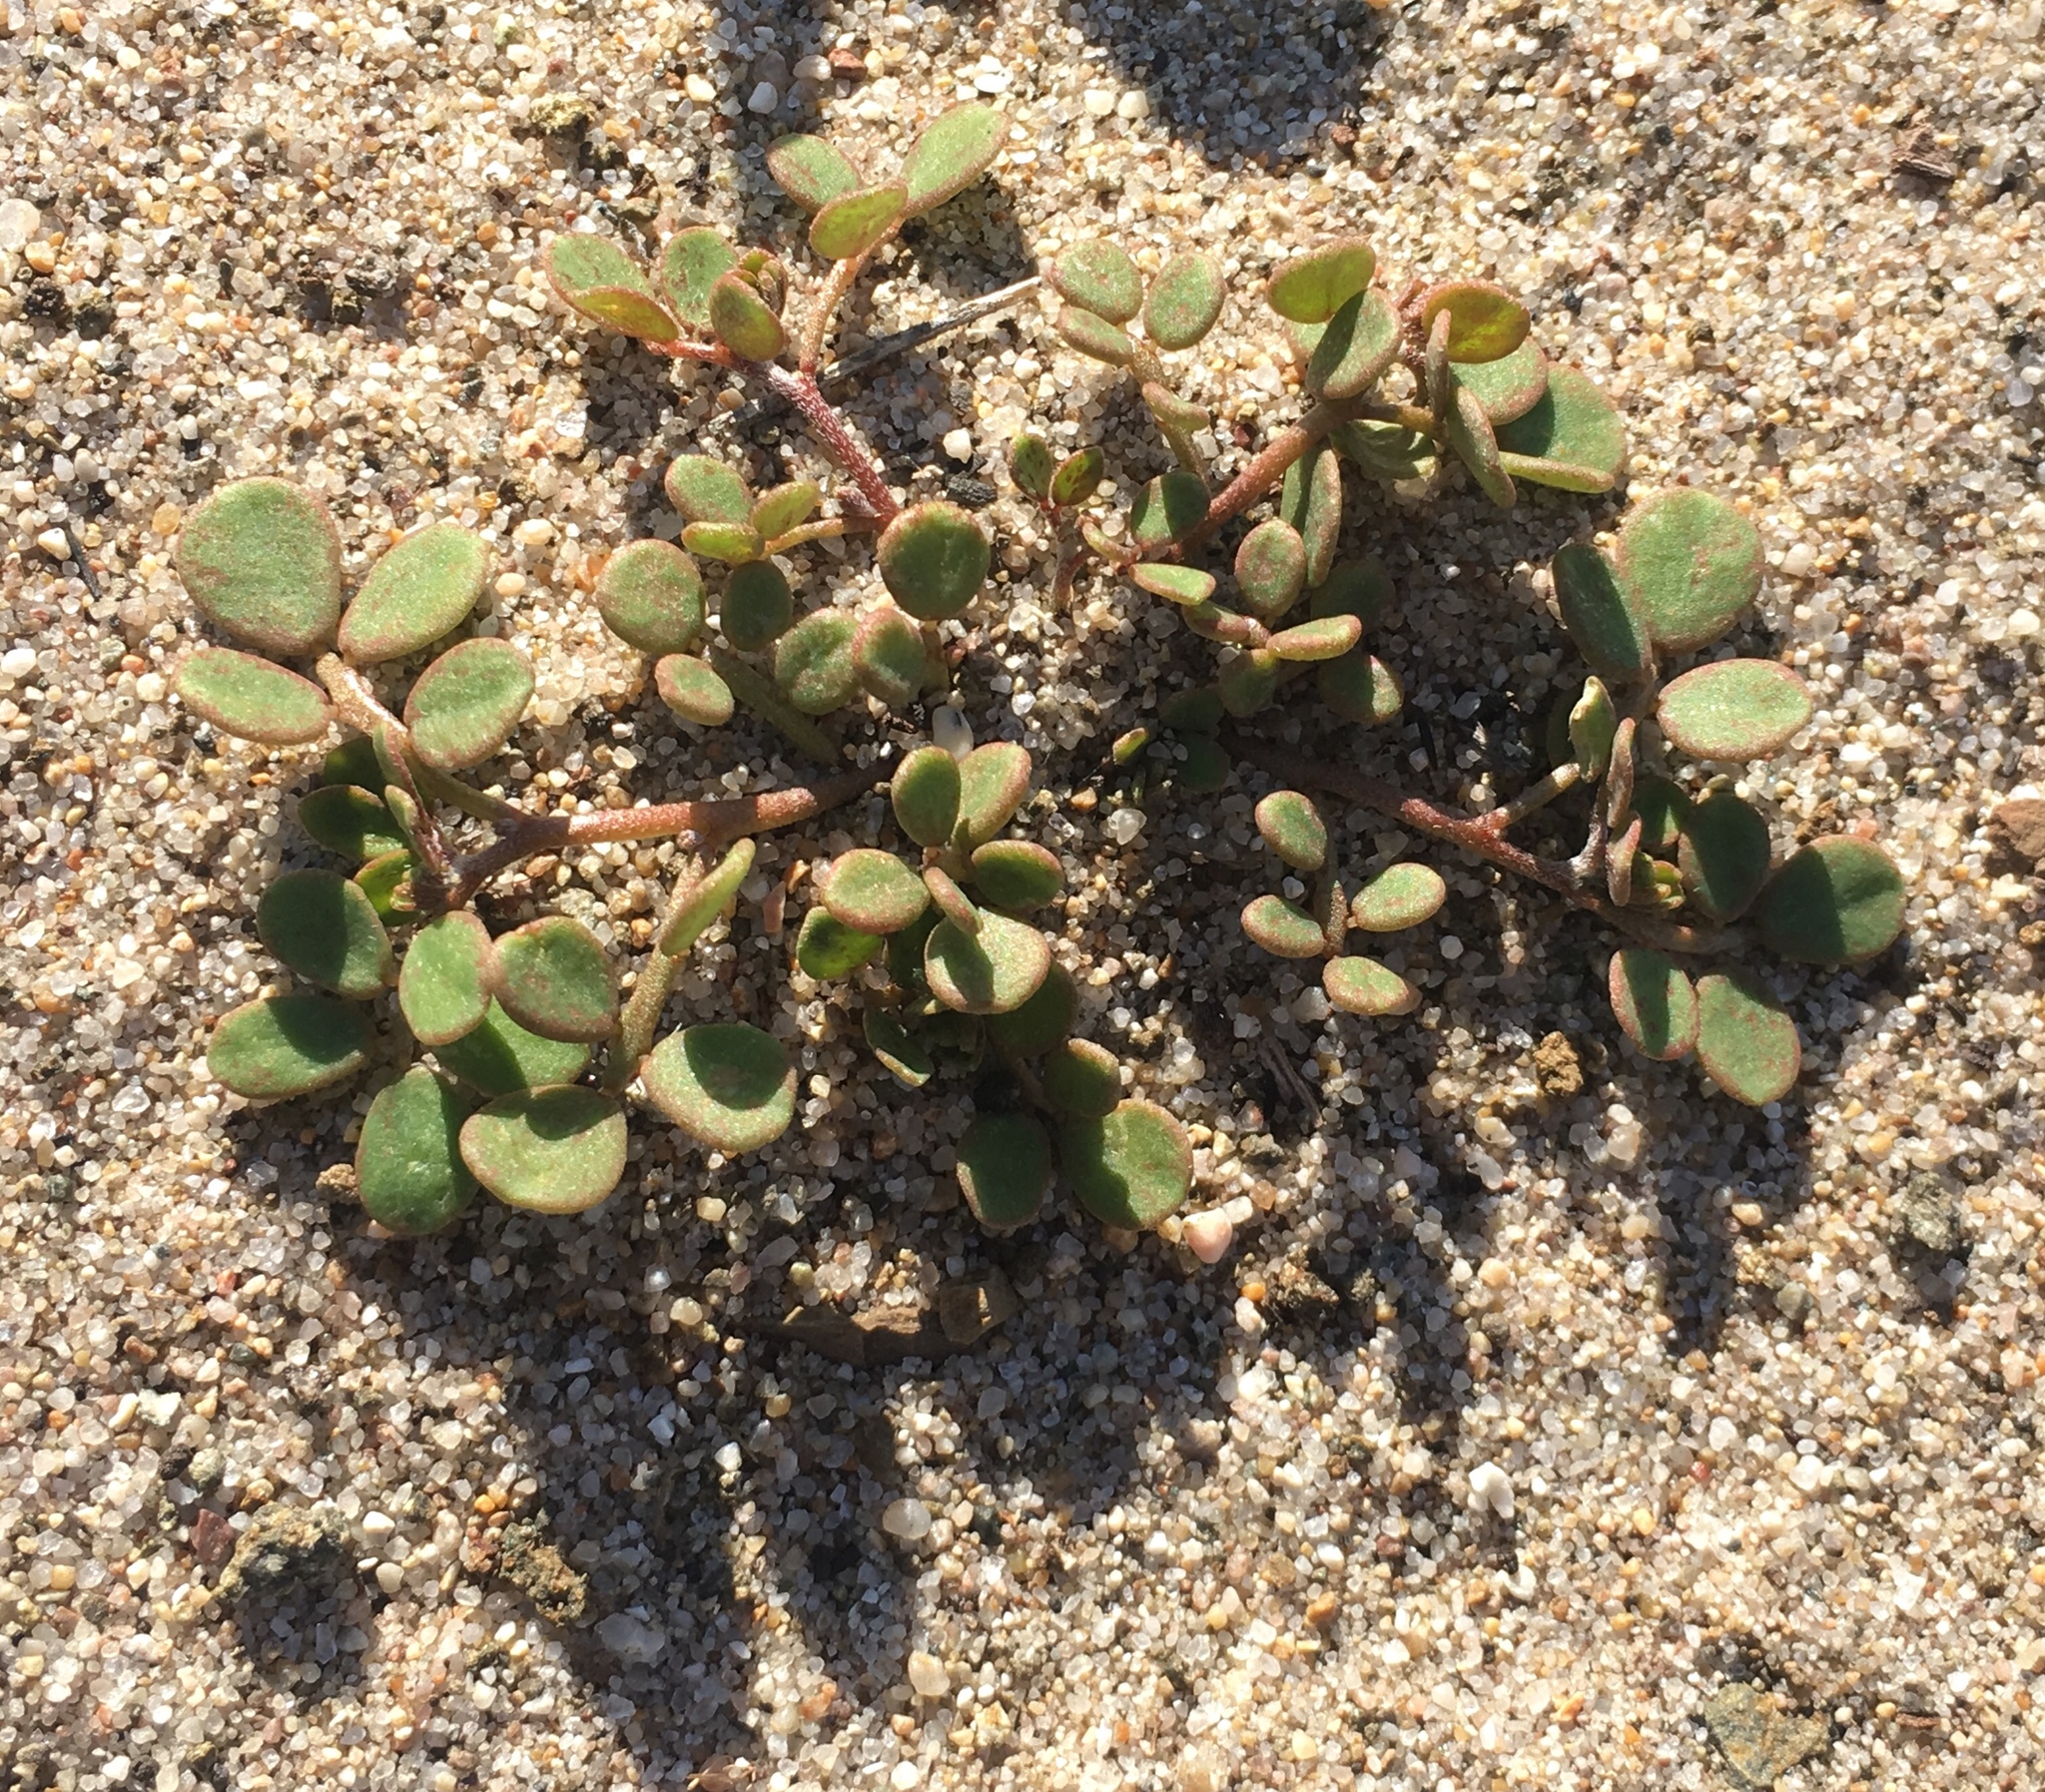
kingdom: Plantae
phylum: Tracheophyta
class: Magnoliopsida
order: Fabales
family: Fabaceae
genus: Acmispon
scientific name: Acmispon maritimus
